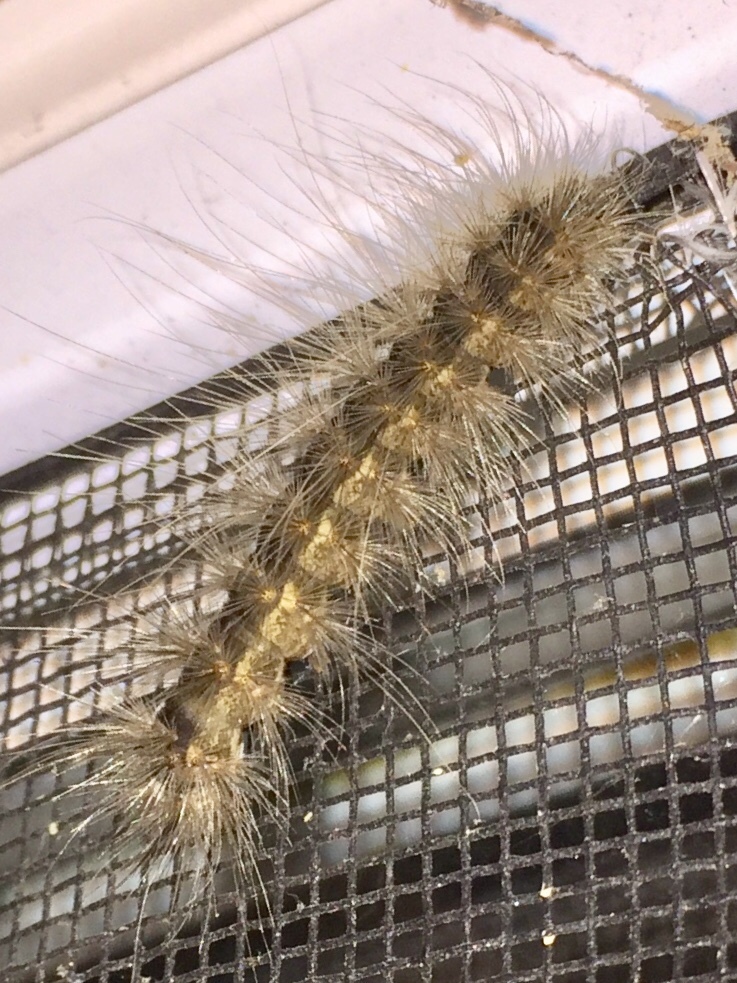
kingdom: Animalia
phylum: Arthropoda
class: Insecta
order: Lepidoptera
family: Erebidae
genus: Hyphantria
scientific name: Hyphantria cunea
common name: American white moth
